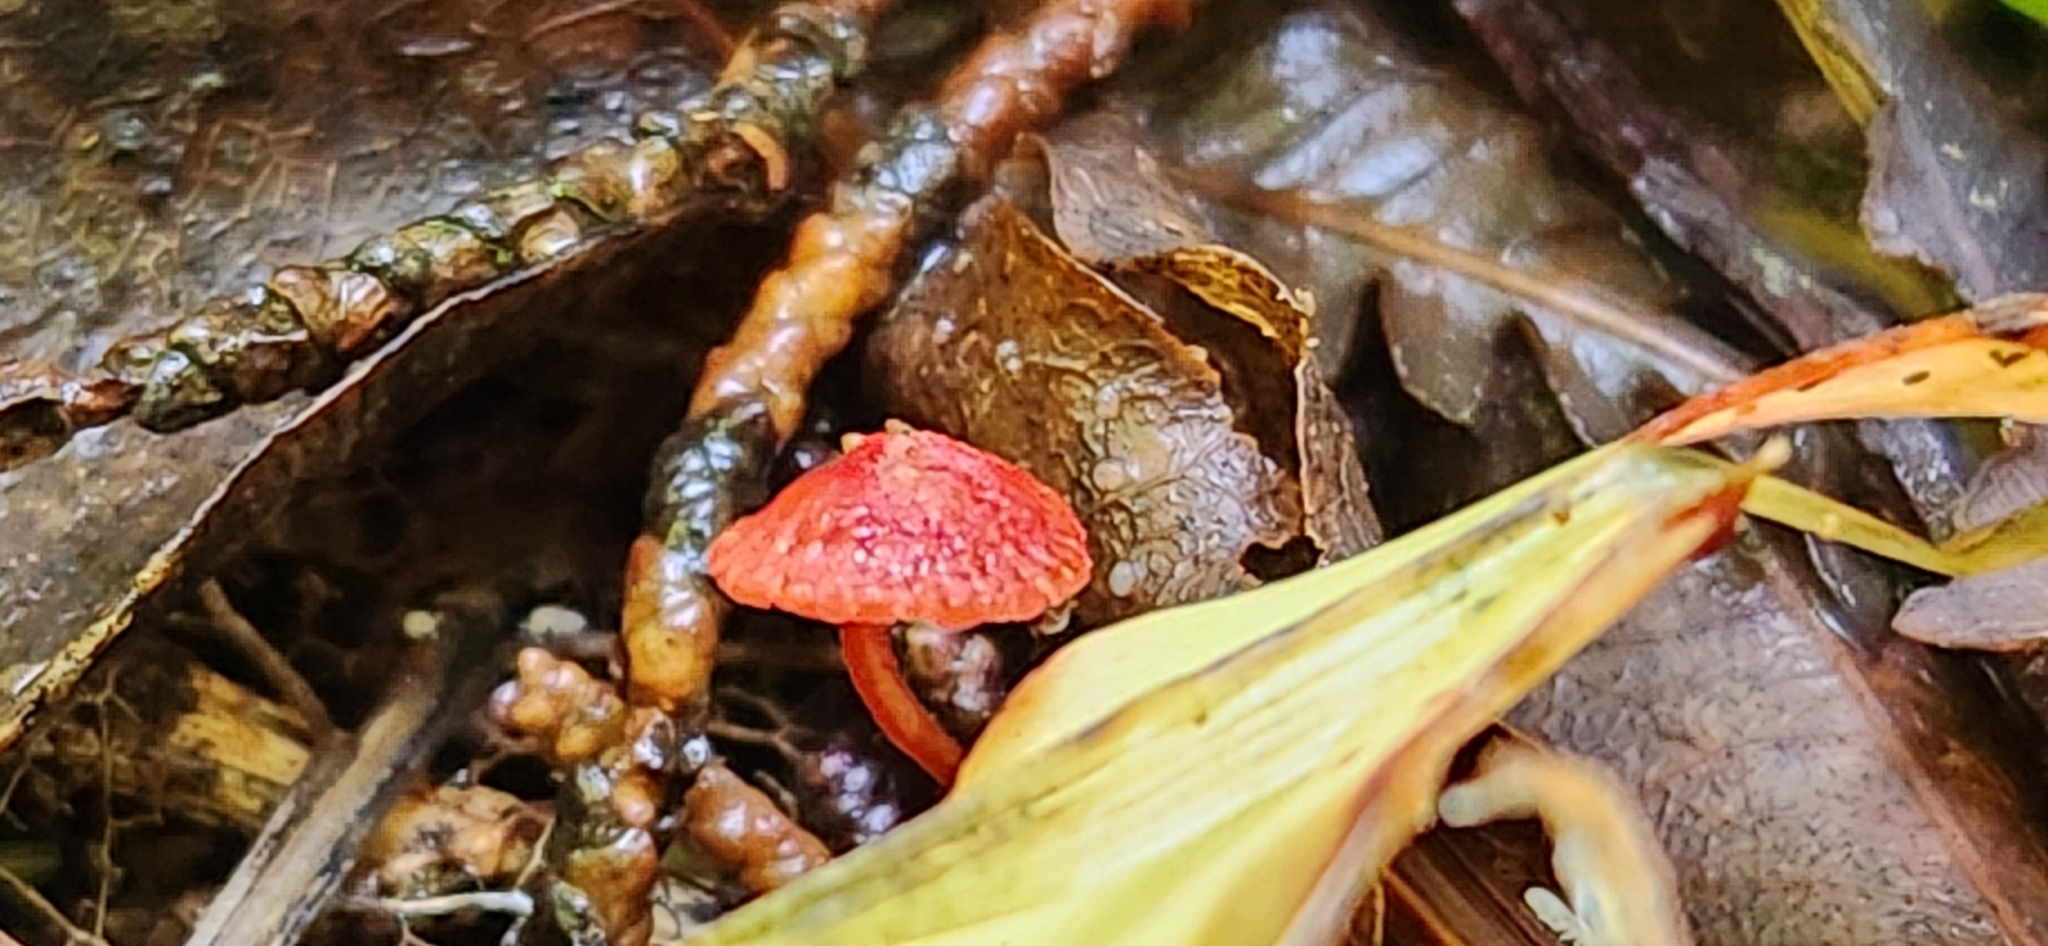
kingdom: Fungi
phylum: Basidiomycota
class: Agaricomycetes
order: Agaricales
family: Mycenaceae
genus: Cruentomycena
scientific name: Cruentomycena viscidocruenta
